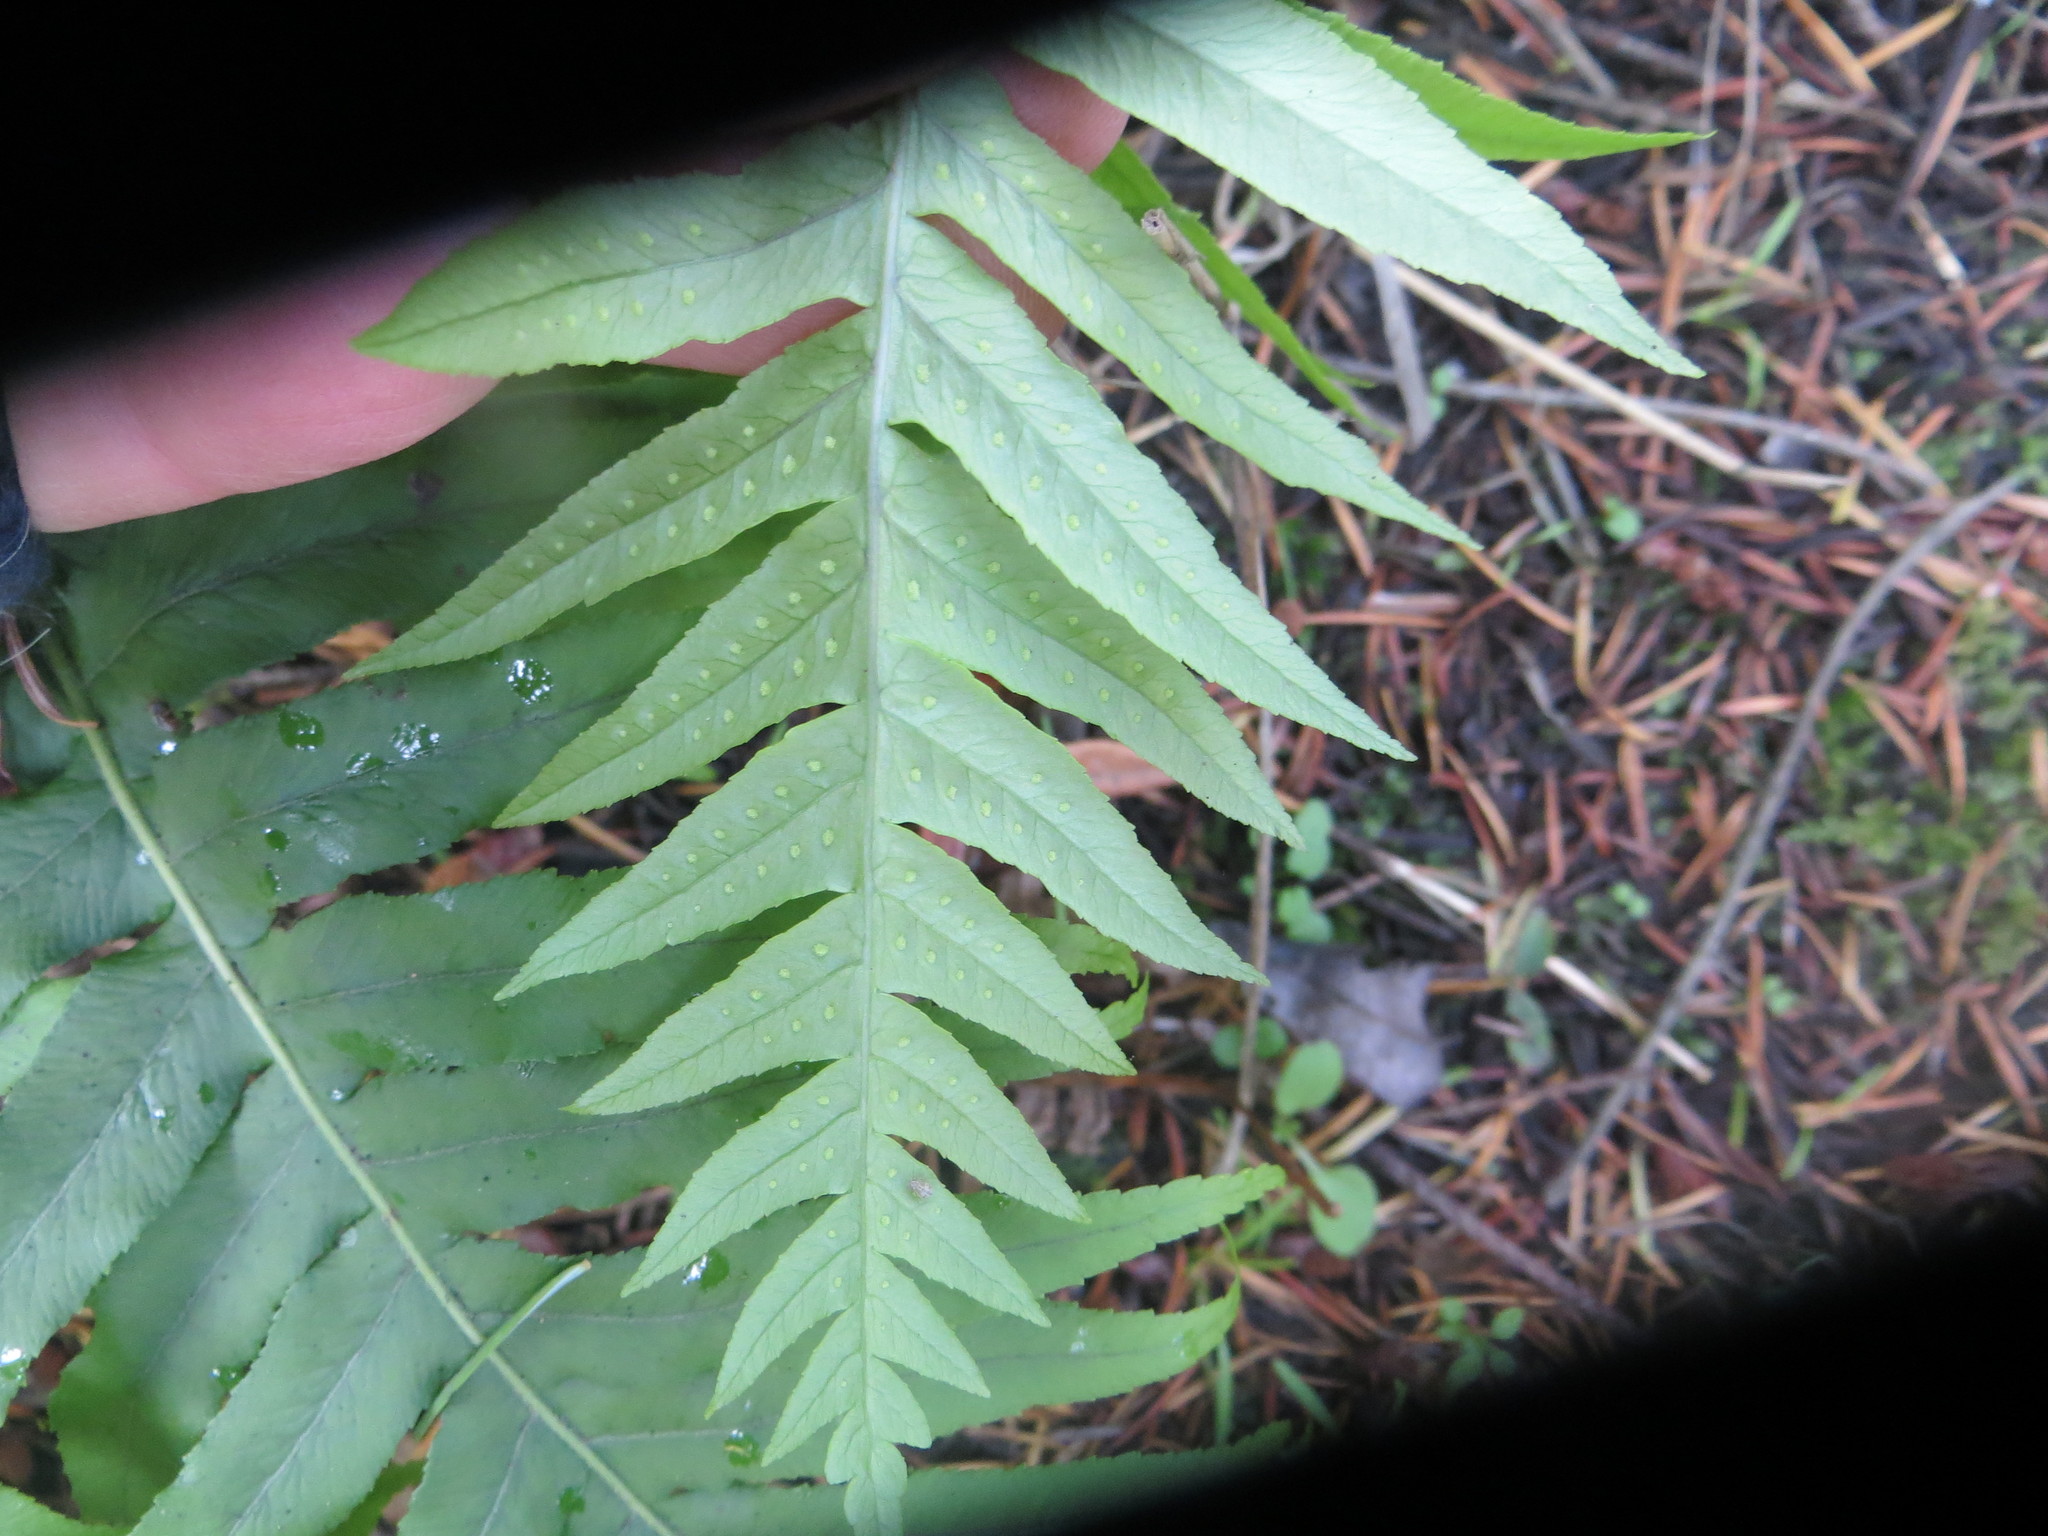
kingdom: Plantae
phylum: Tracheophyta
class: Polypodiopsida
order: Polypodiales
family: Polypodiaceae
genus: Polypodium
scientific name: Polypodium glycyrrhiza
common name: Licorice fern
